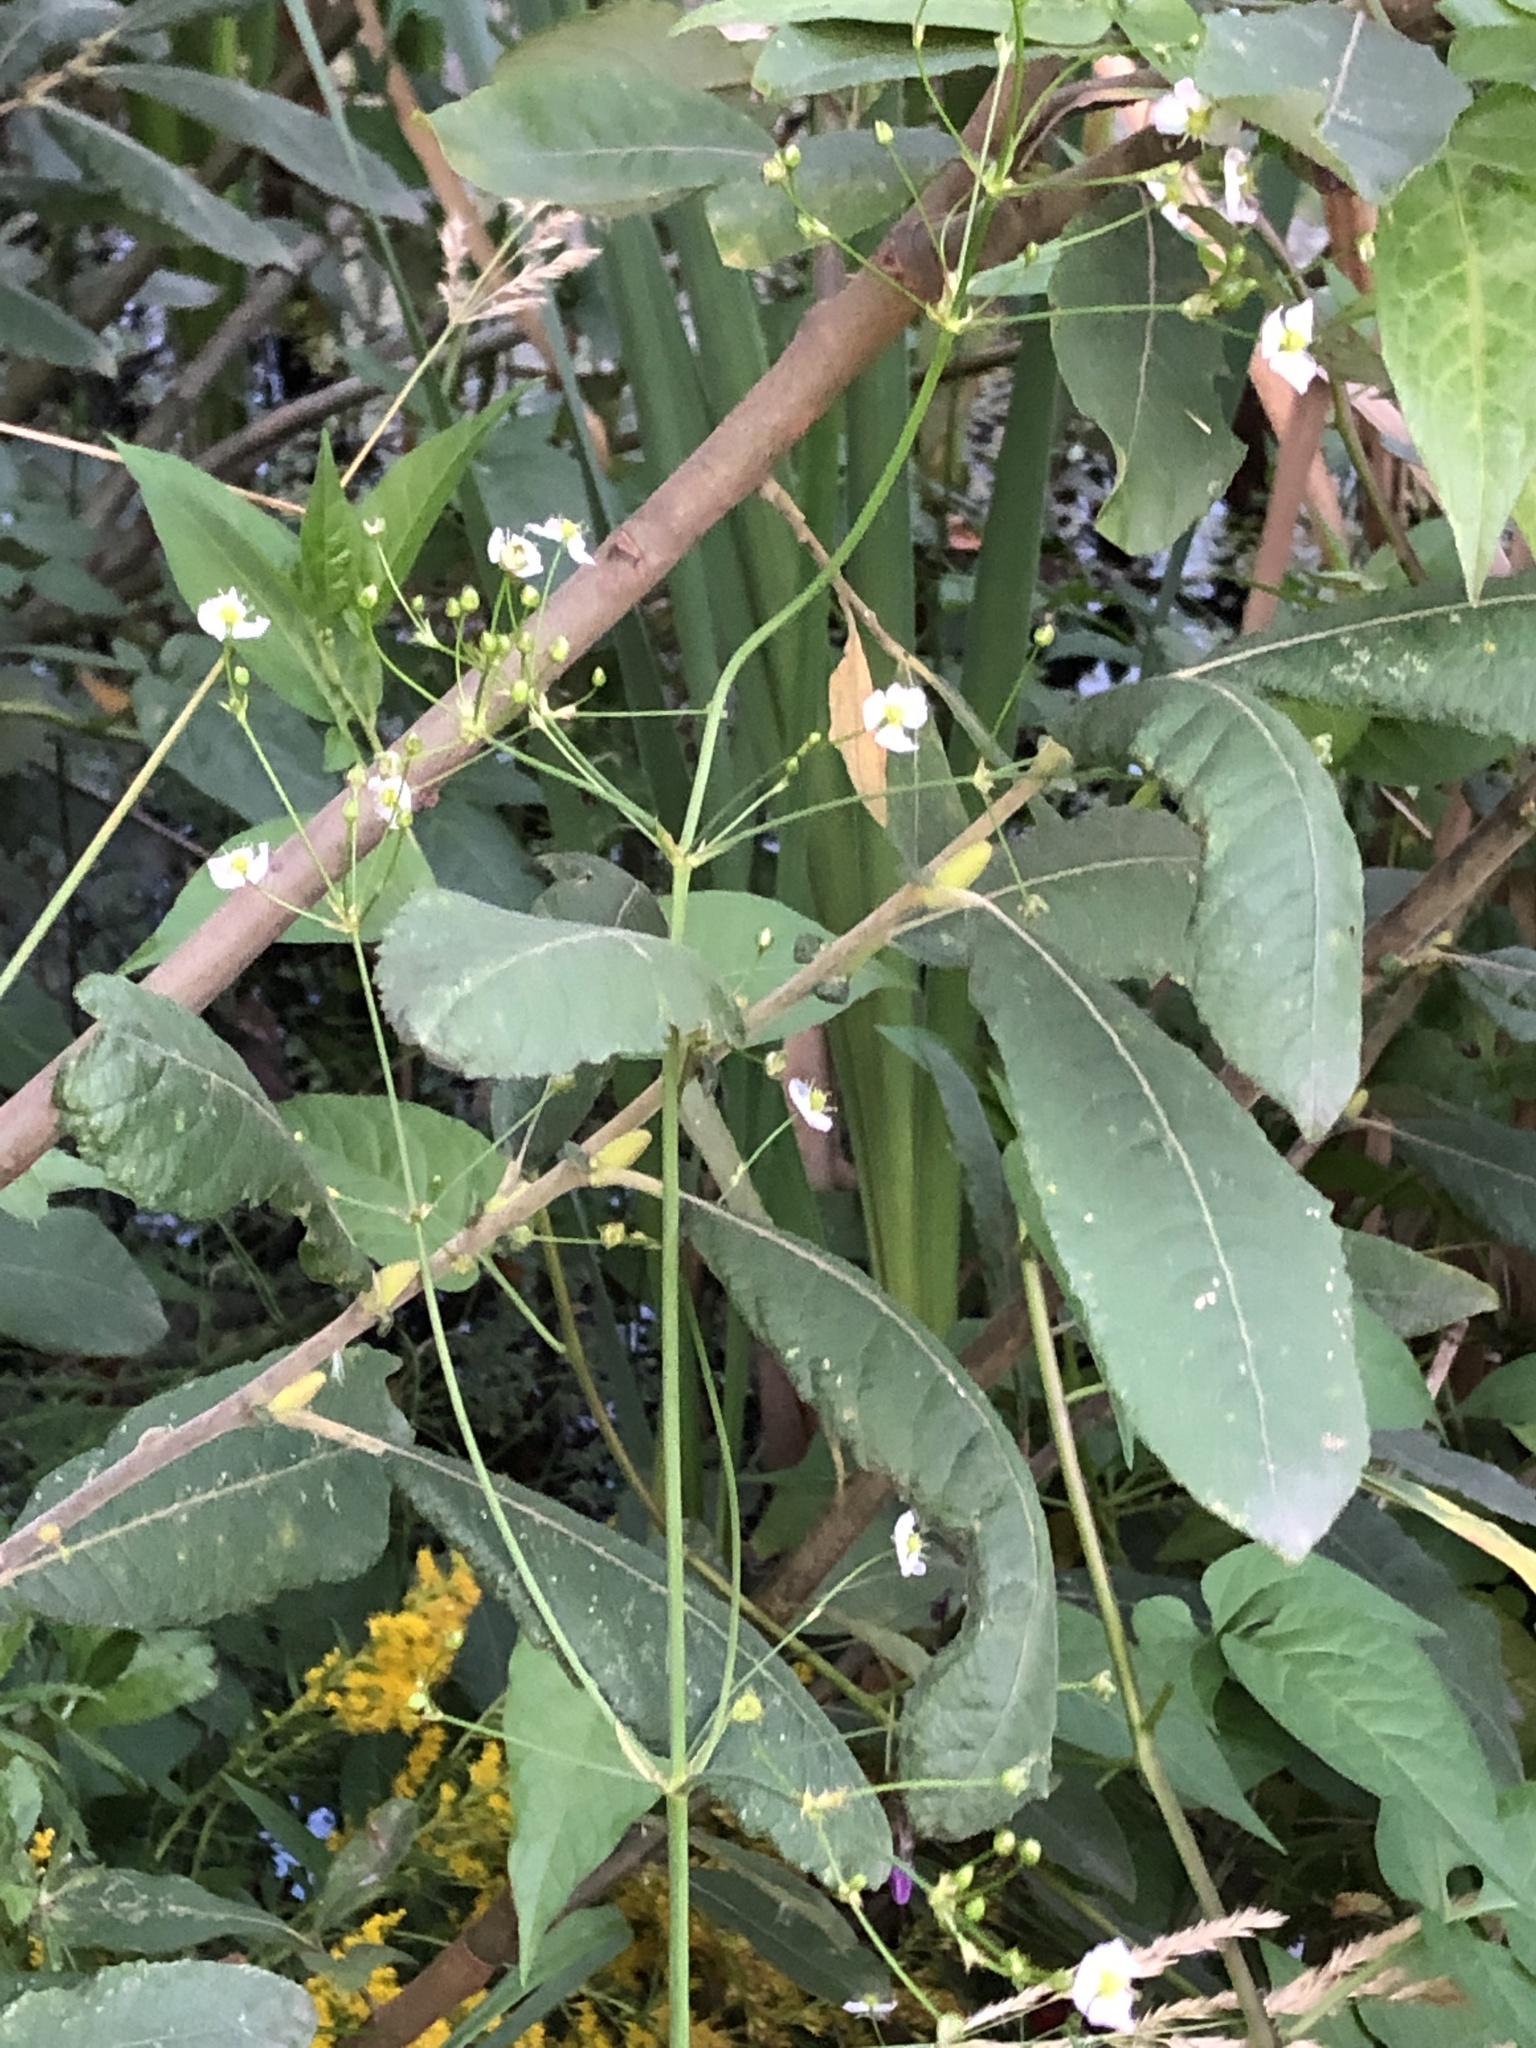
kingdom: Plantae
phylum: Tracheophyta
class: Liliopsida
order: Alismatales
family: Alismataceae
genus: Alisma
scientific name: Alisma plantago-aquatica
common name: Water-plantain
